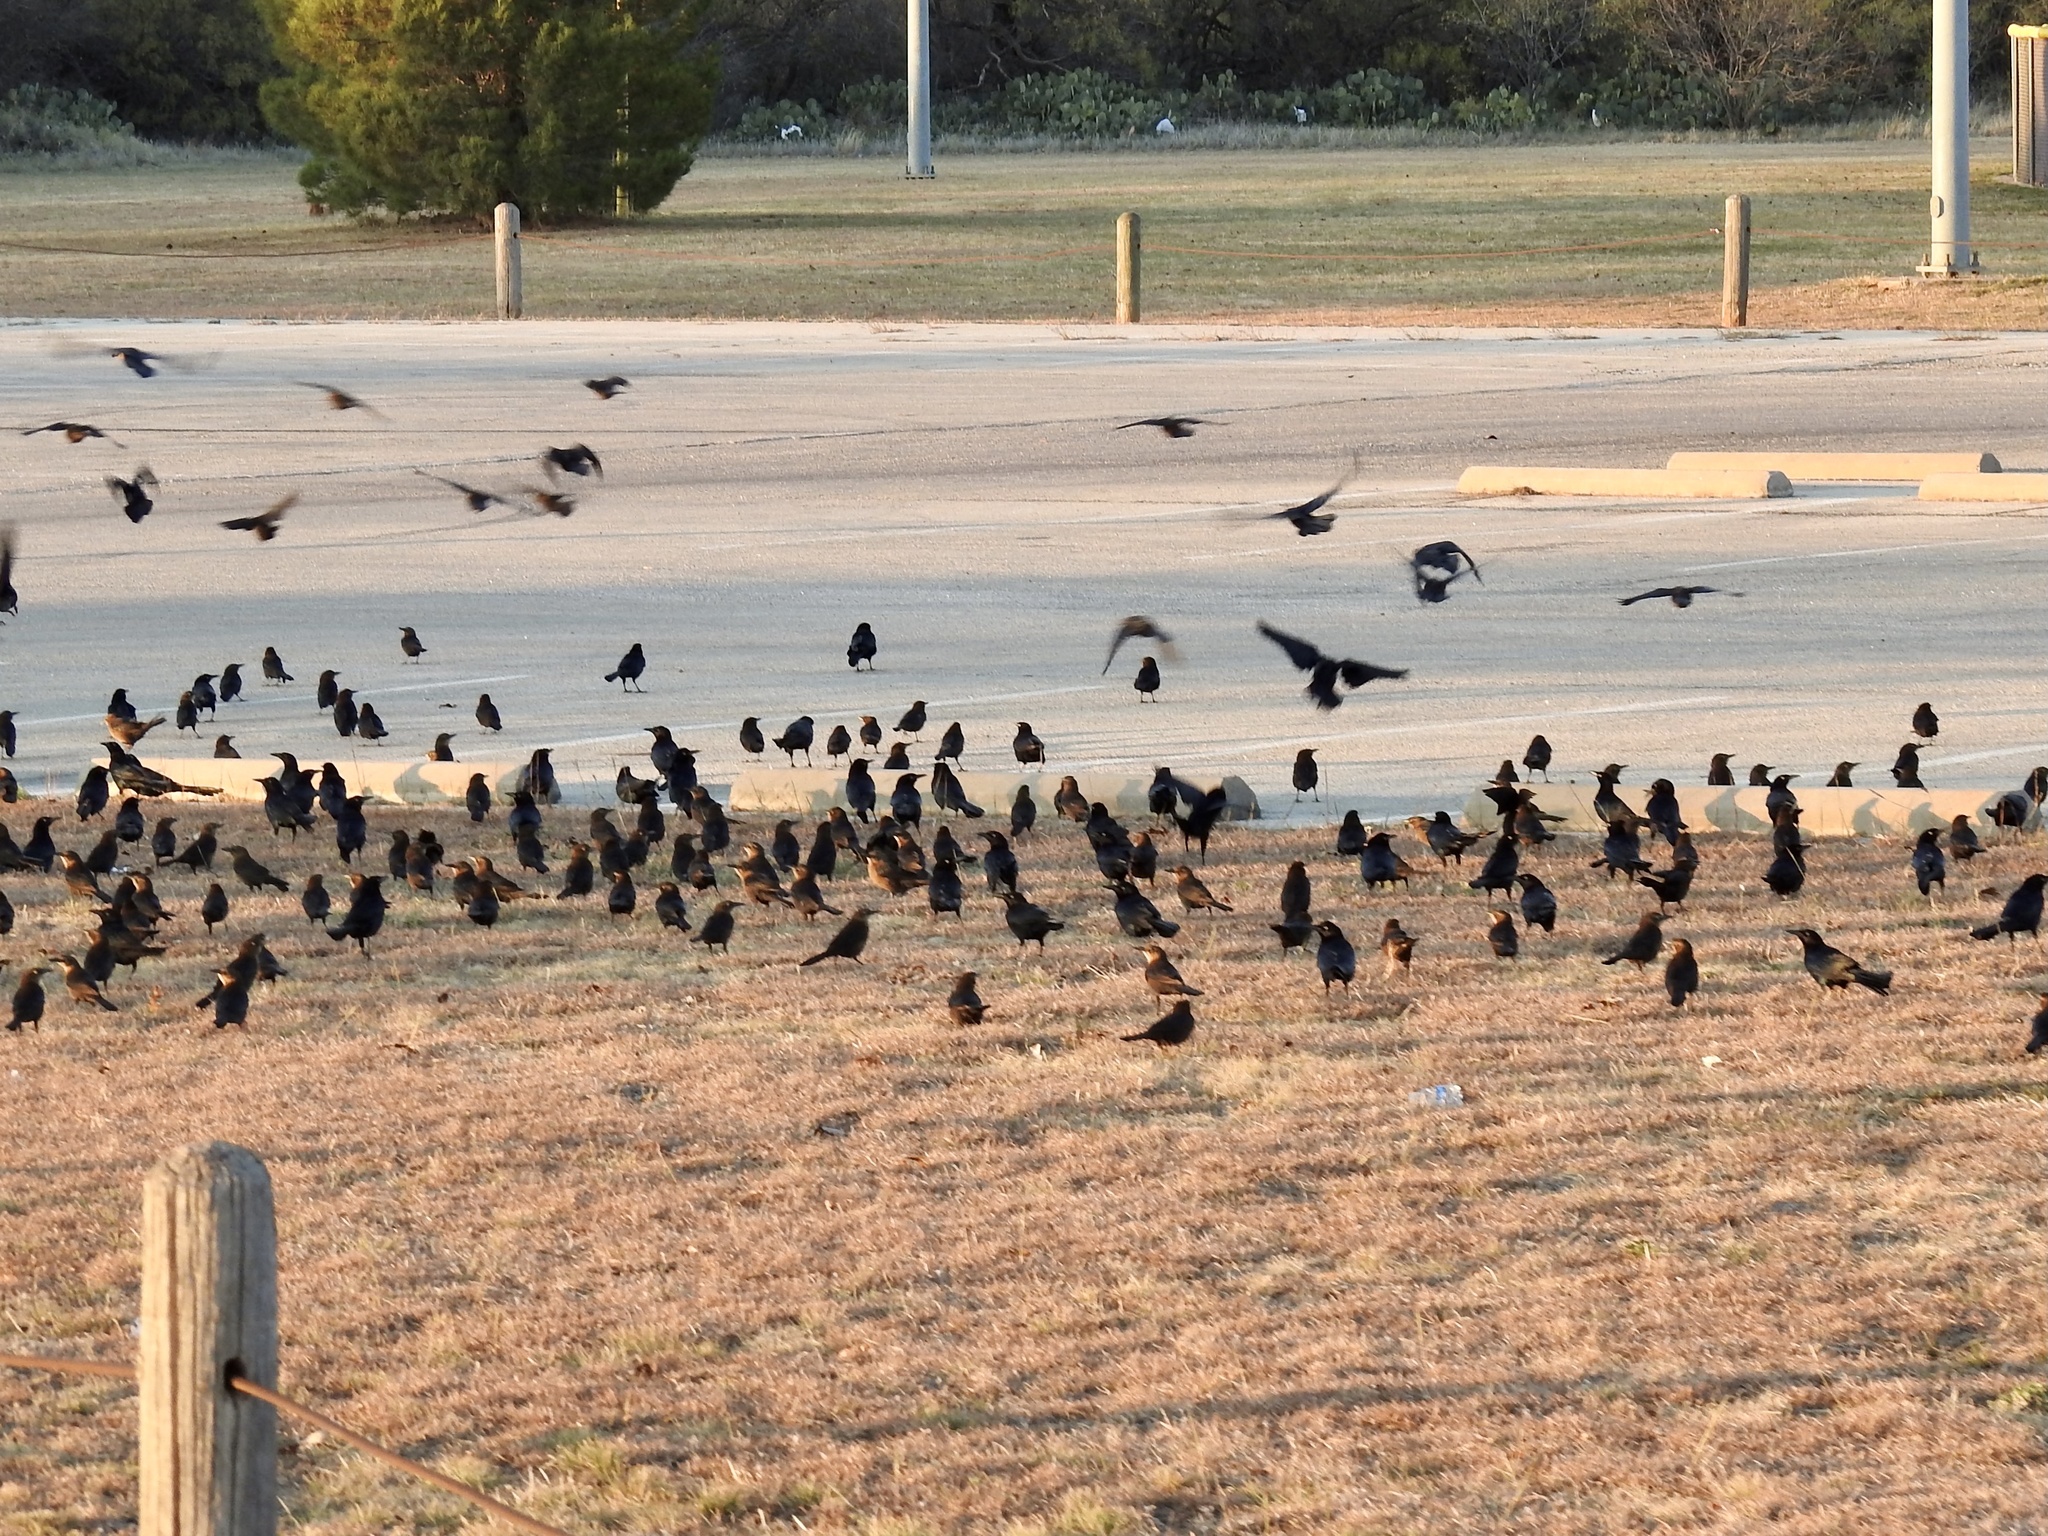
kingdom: Animalia
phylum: Chordata
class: Aves
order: Passeriformes
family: Icteridae
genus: Quiscalus
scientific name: Quiscalus mexicanus
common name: Great-tailed grackle
